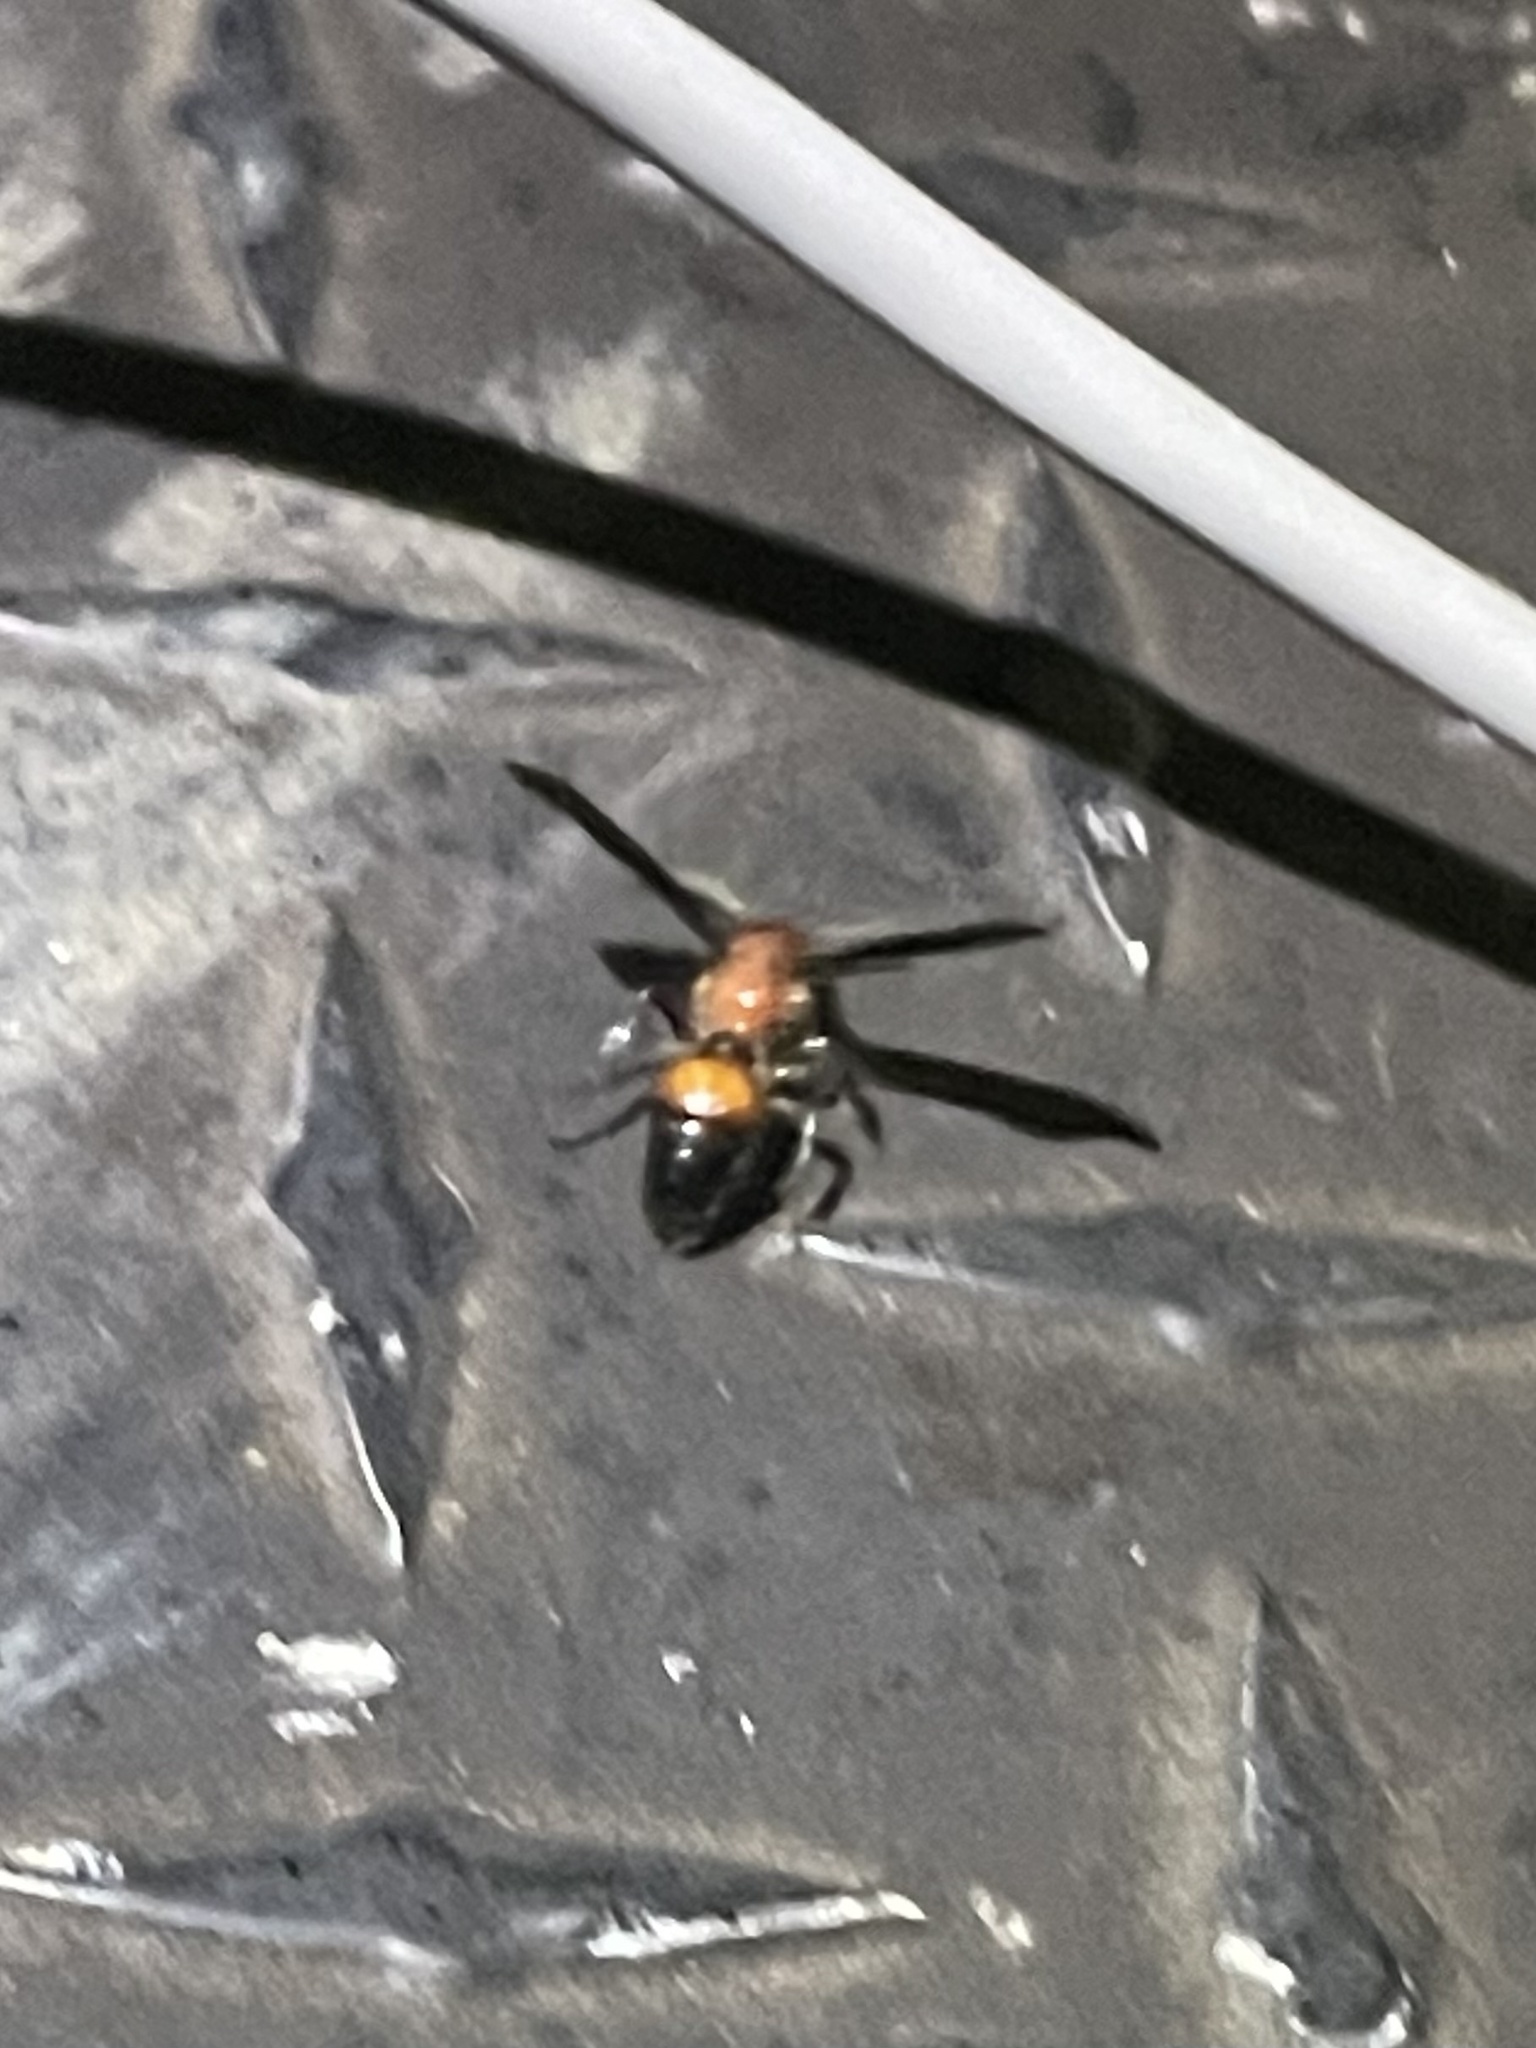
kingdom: Animalia
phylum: Arthropoda
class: Insecta
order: Hymenoptera
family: Mutillidae
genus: Sphaeropthalma
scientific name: Sphaeropthalma
